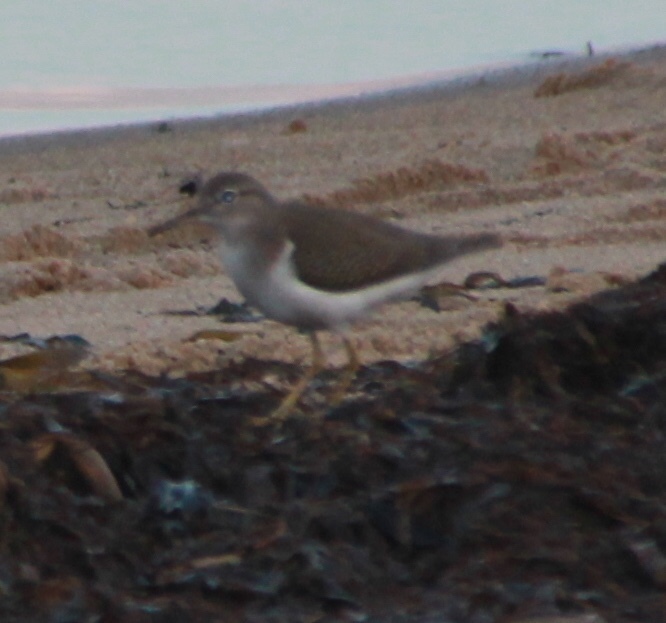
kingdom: Animalia
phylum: Chordata
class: Aves
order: Charadriiformes
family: Scolopacidae
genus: Actitis
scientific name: Actitis macularius
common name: Spotted sandpiper
